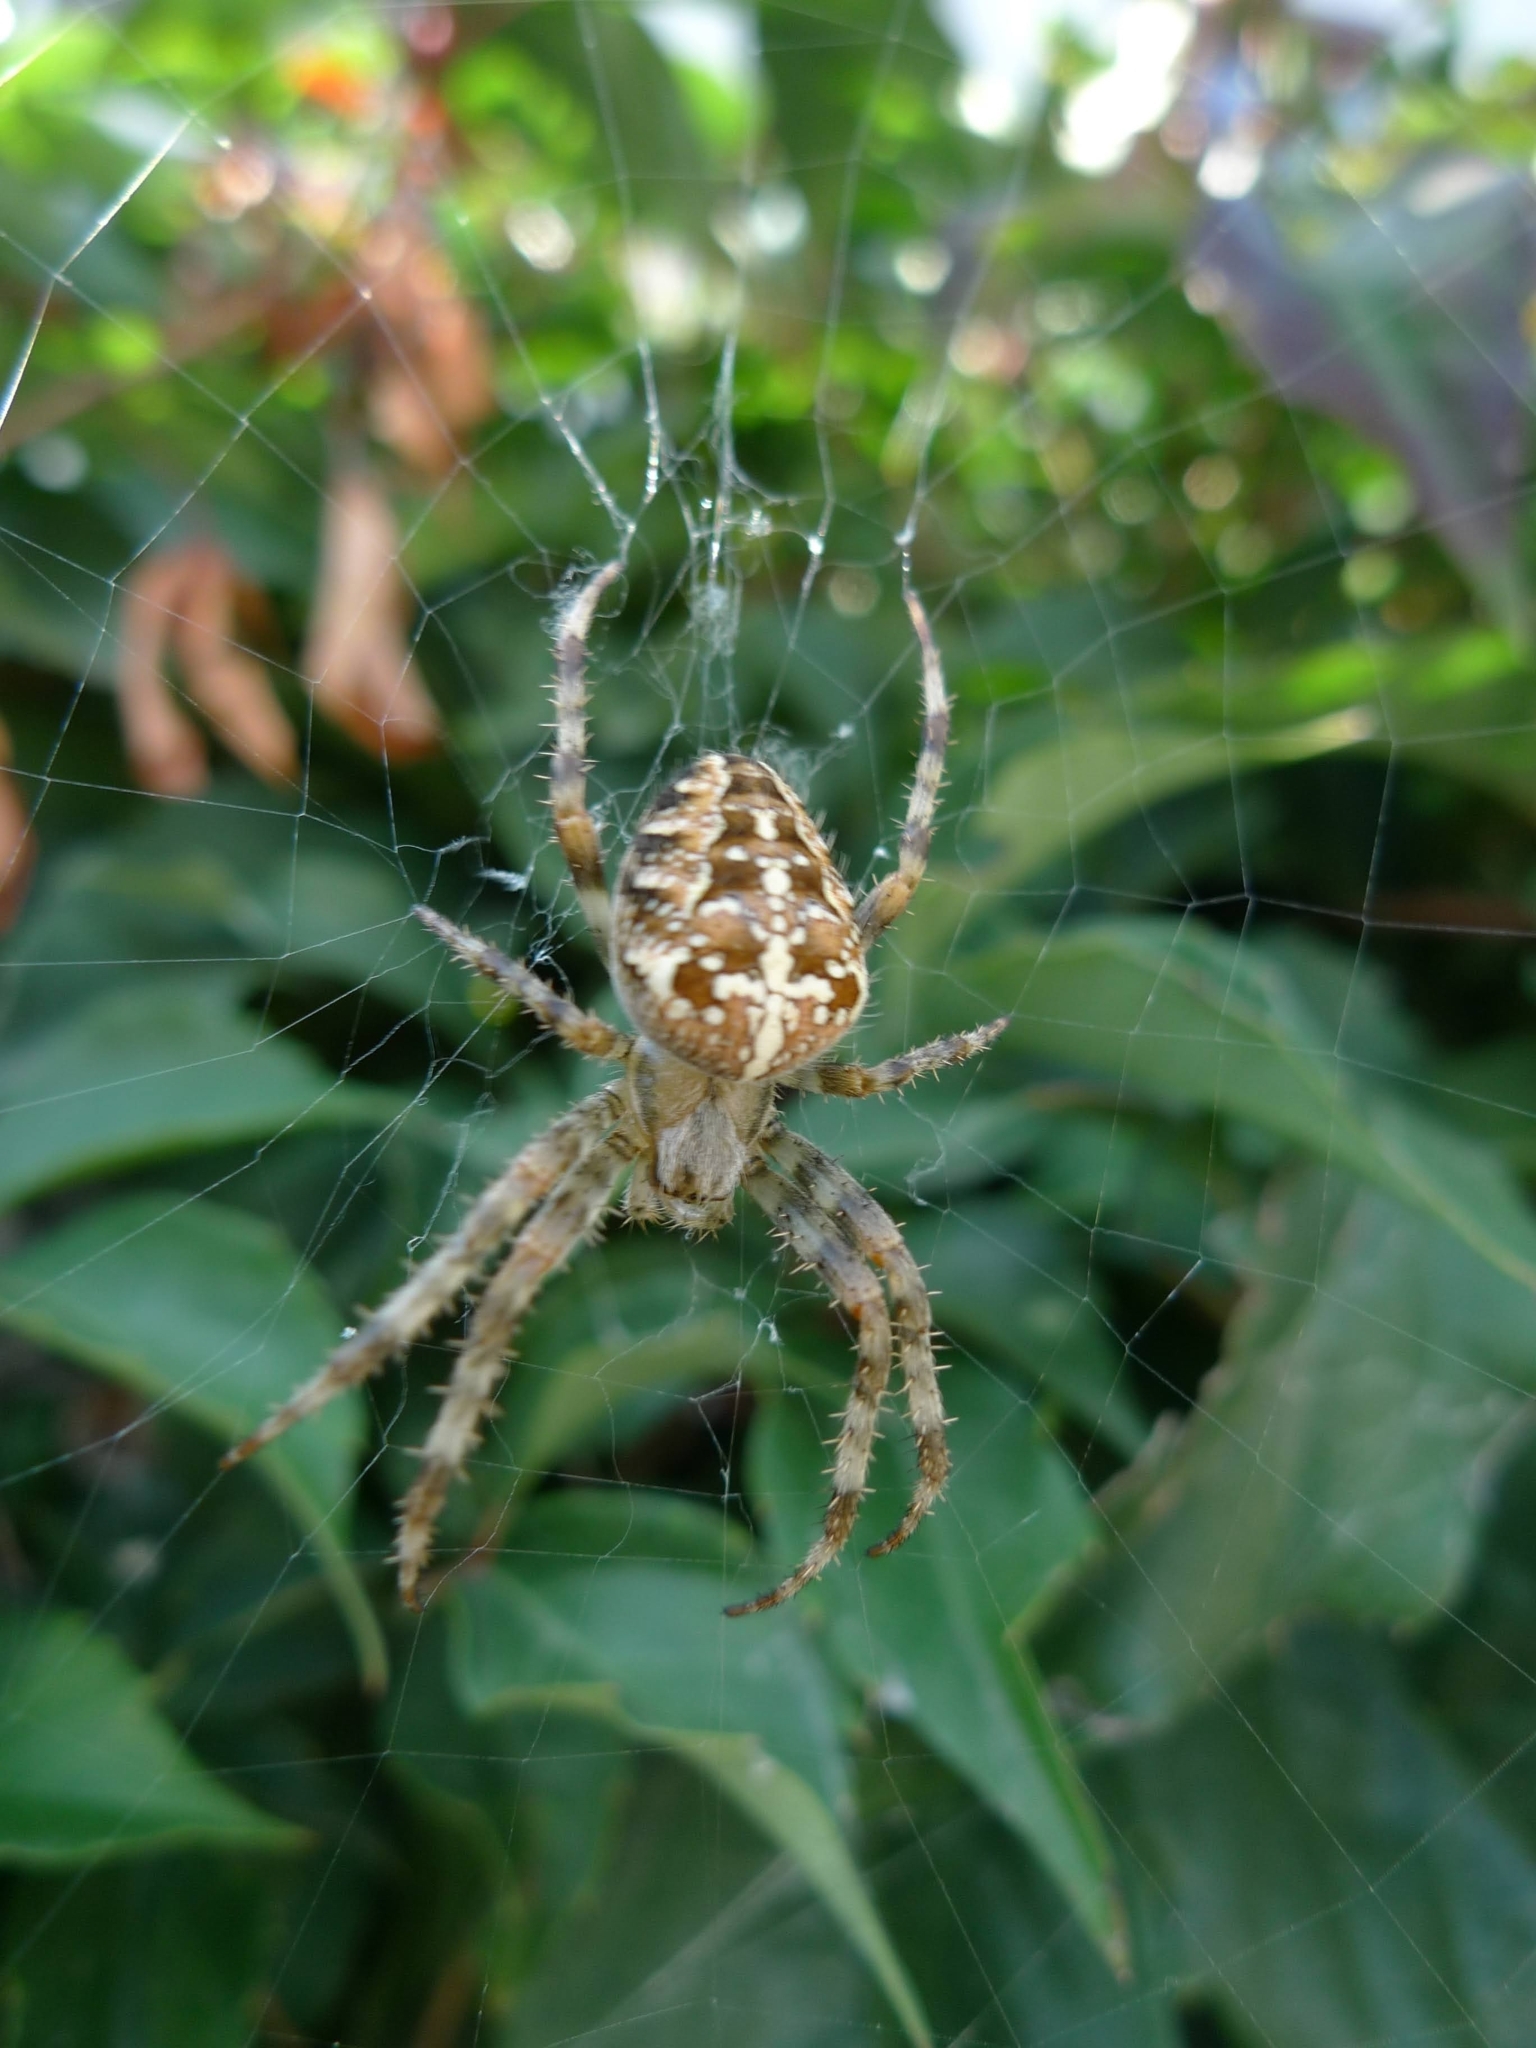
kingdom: Animalia
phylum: Arthropoda
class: Arachnida
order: Araneae
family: Araneidae
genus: Araneus
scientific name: Araneus diadematus
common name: Cross orbweaver
